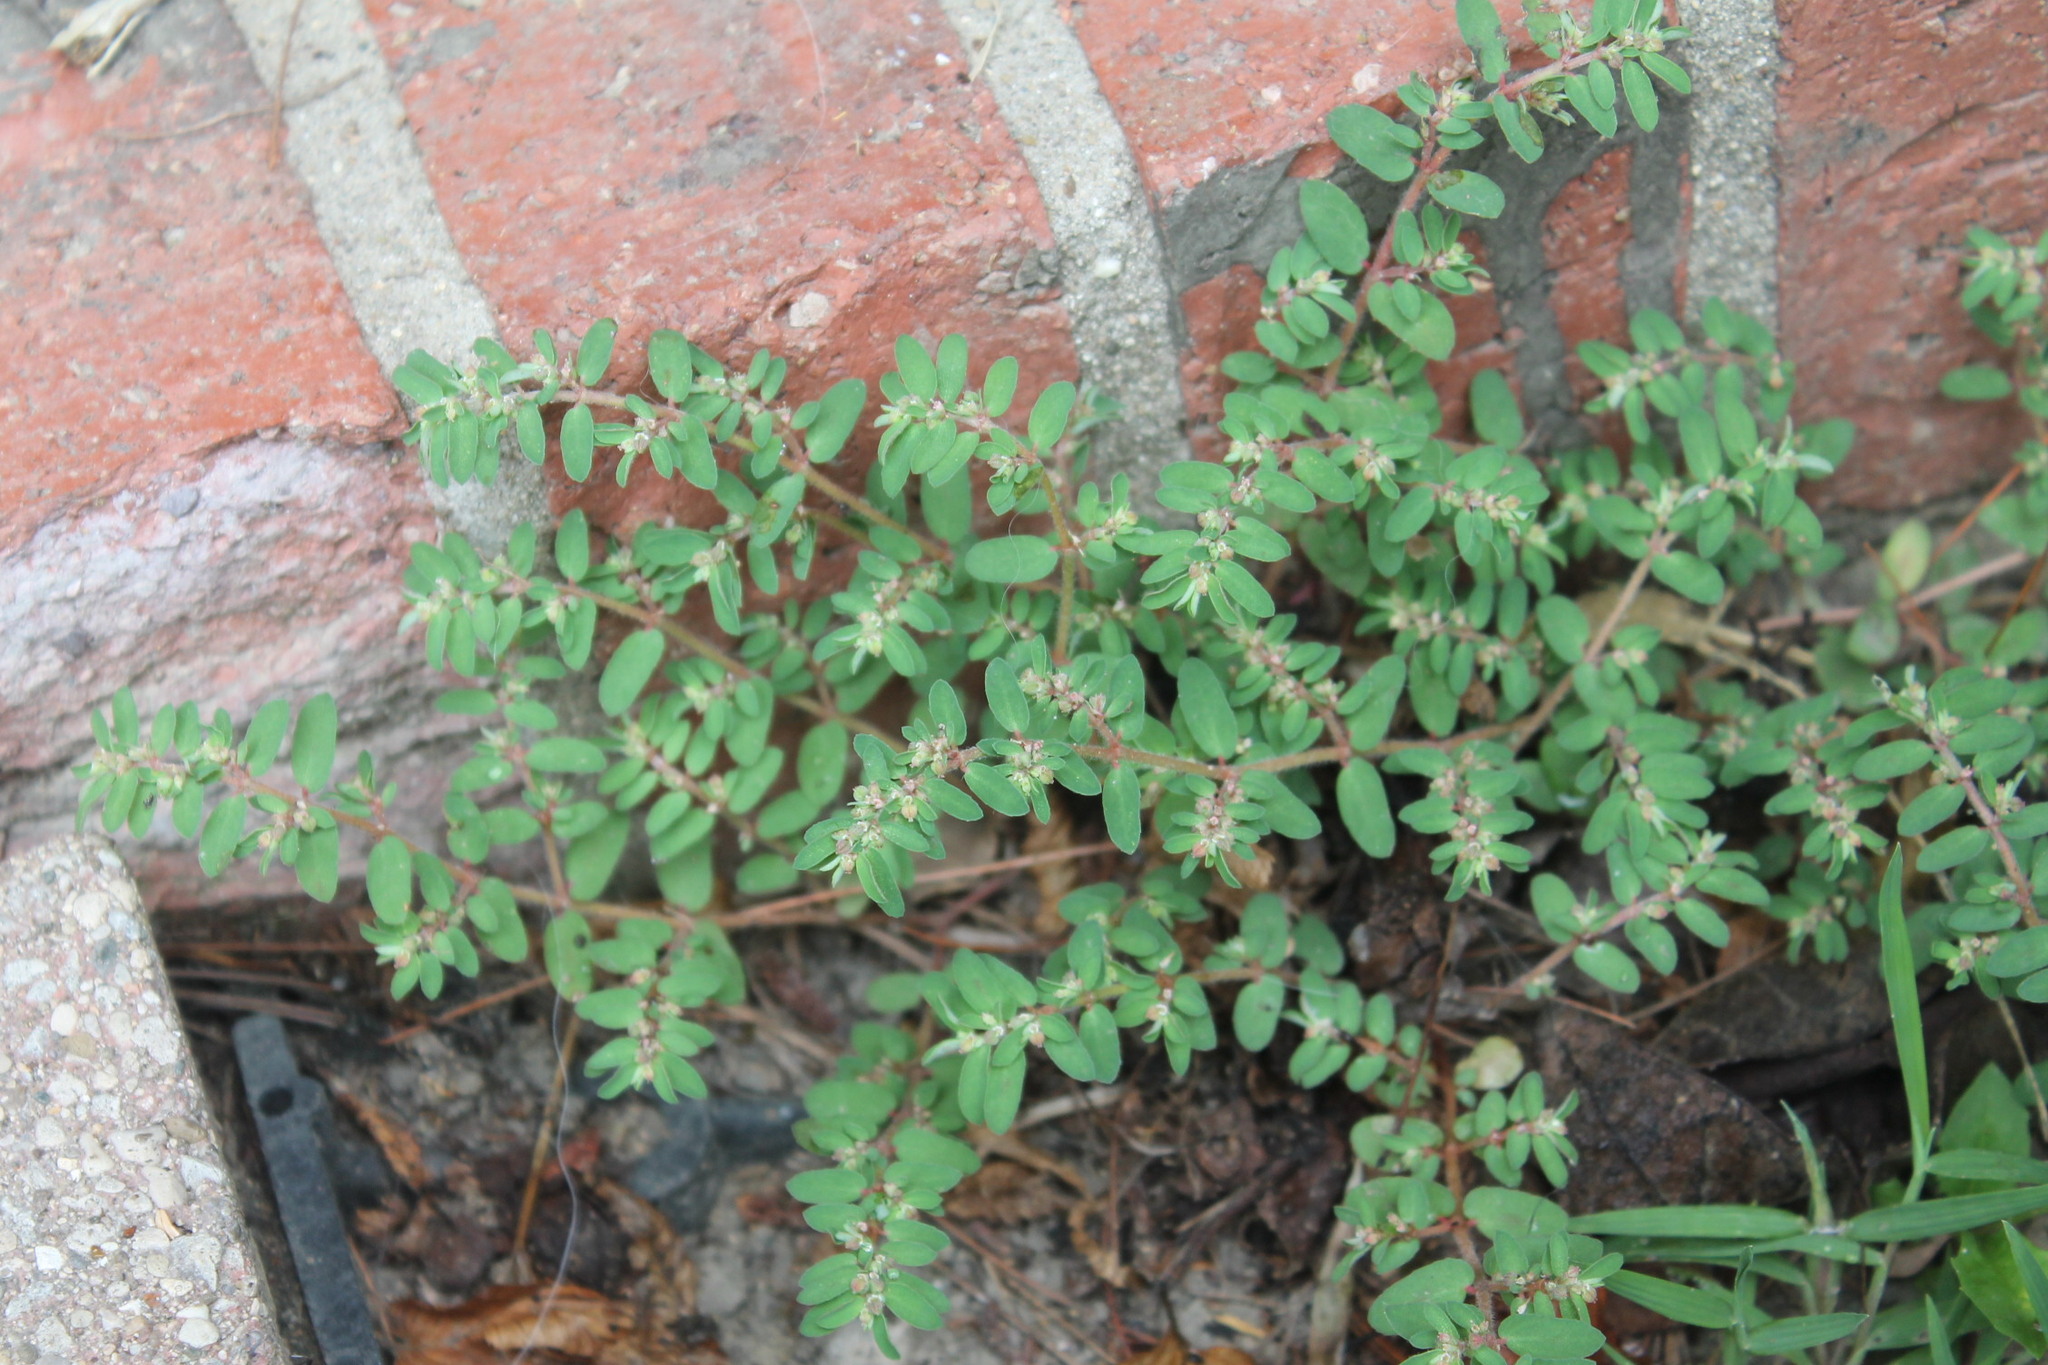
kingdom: Plantae
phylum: Tracheophyta
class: Magnoliopsida
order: Malpighiales
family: Euphorbiaceae
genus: Euphorbia
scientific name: Euphorbia maculata
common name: Spotted spurge
